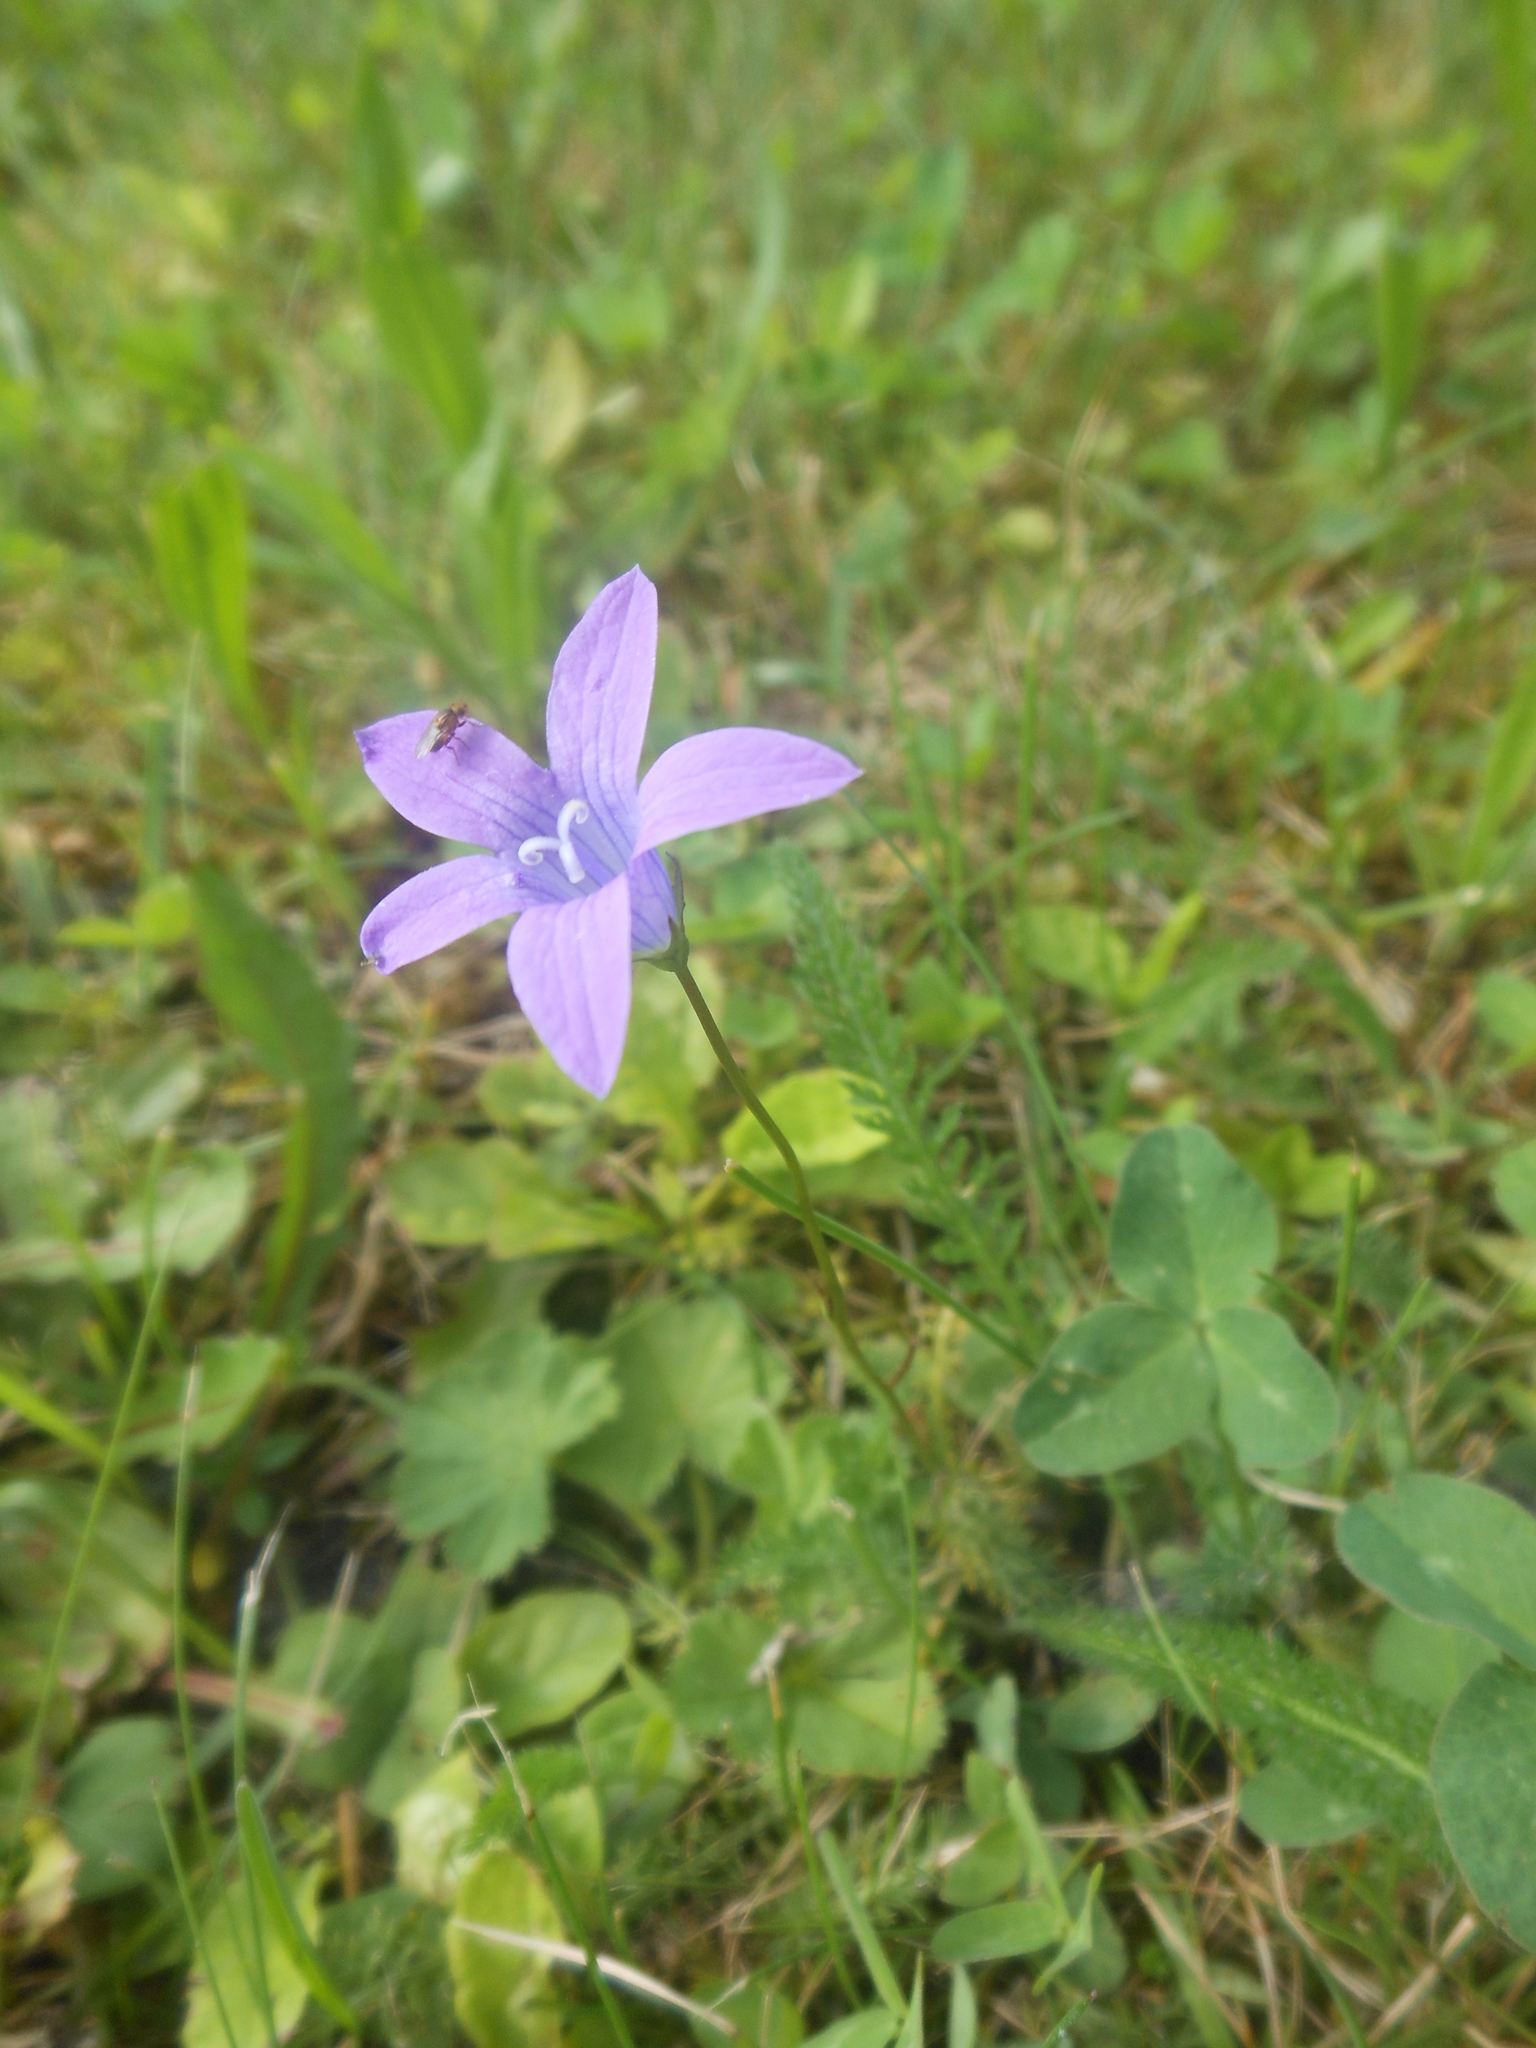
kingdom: Plantae
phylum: Tracheophyta
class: Magnoliopsida
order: Asterales
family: Campanulaceae
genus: Campanula
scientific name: Campanula patula
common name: Spreading bellflower
